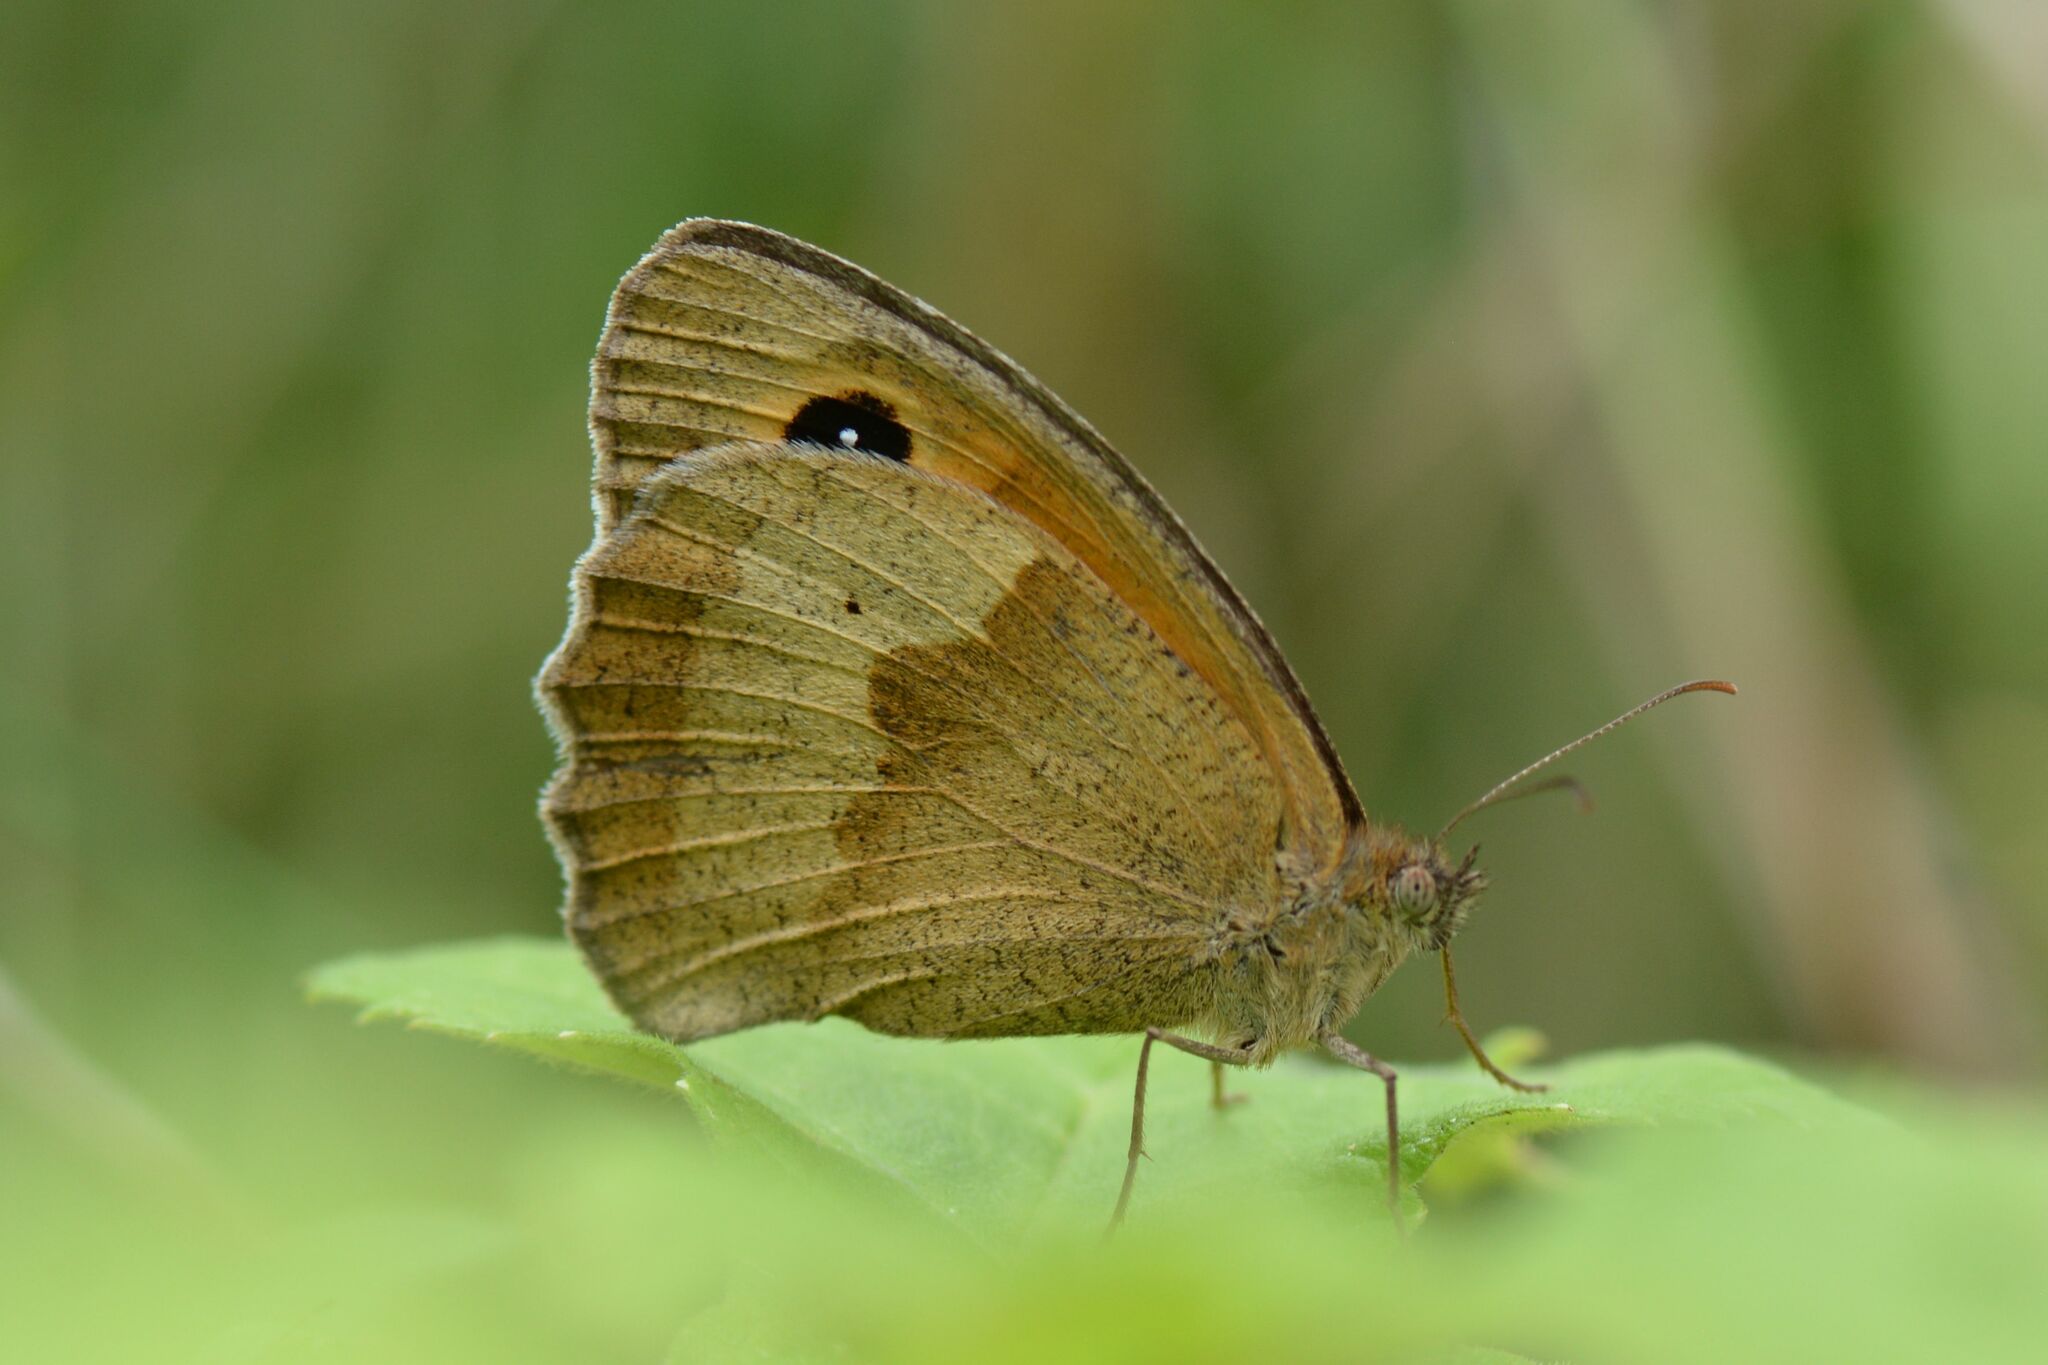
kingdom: Animalia
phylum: Arthropoda
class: Insecta
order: Lepidoptera
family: Nymphalidae
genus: Maniola
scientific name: Maniola jurtina
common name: Meadow brown
